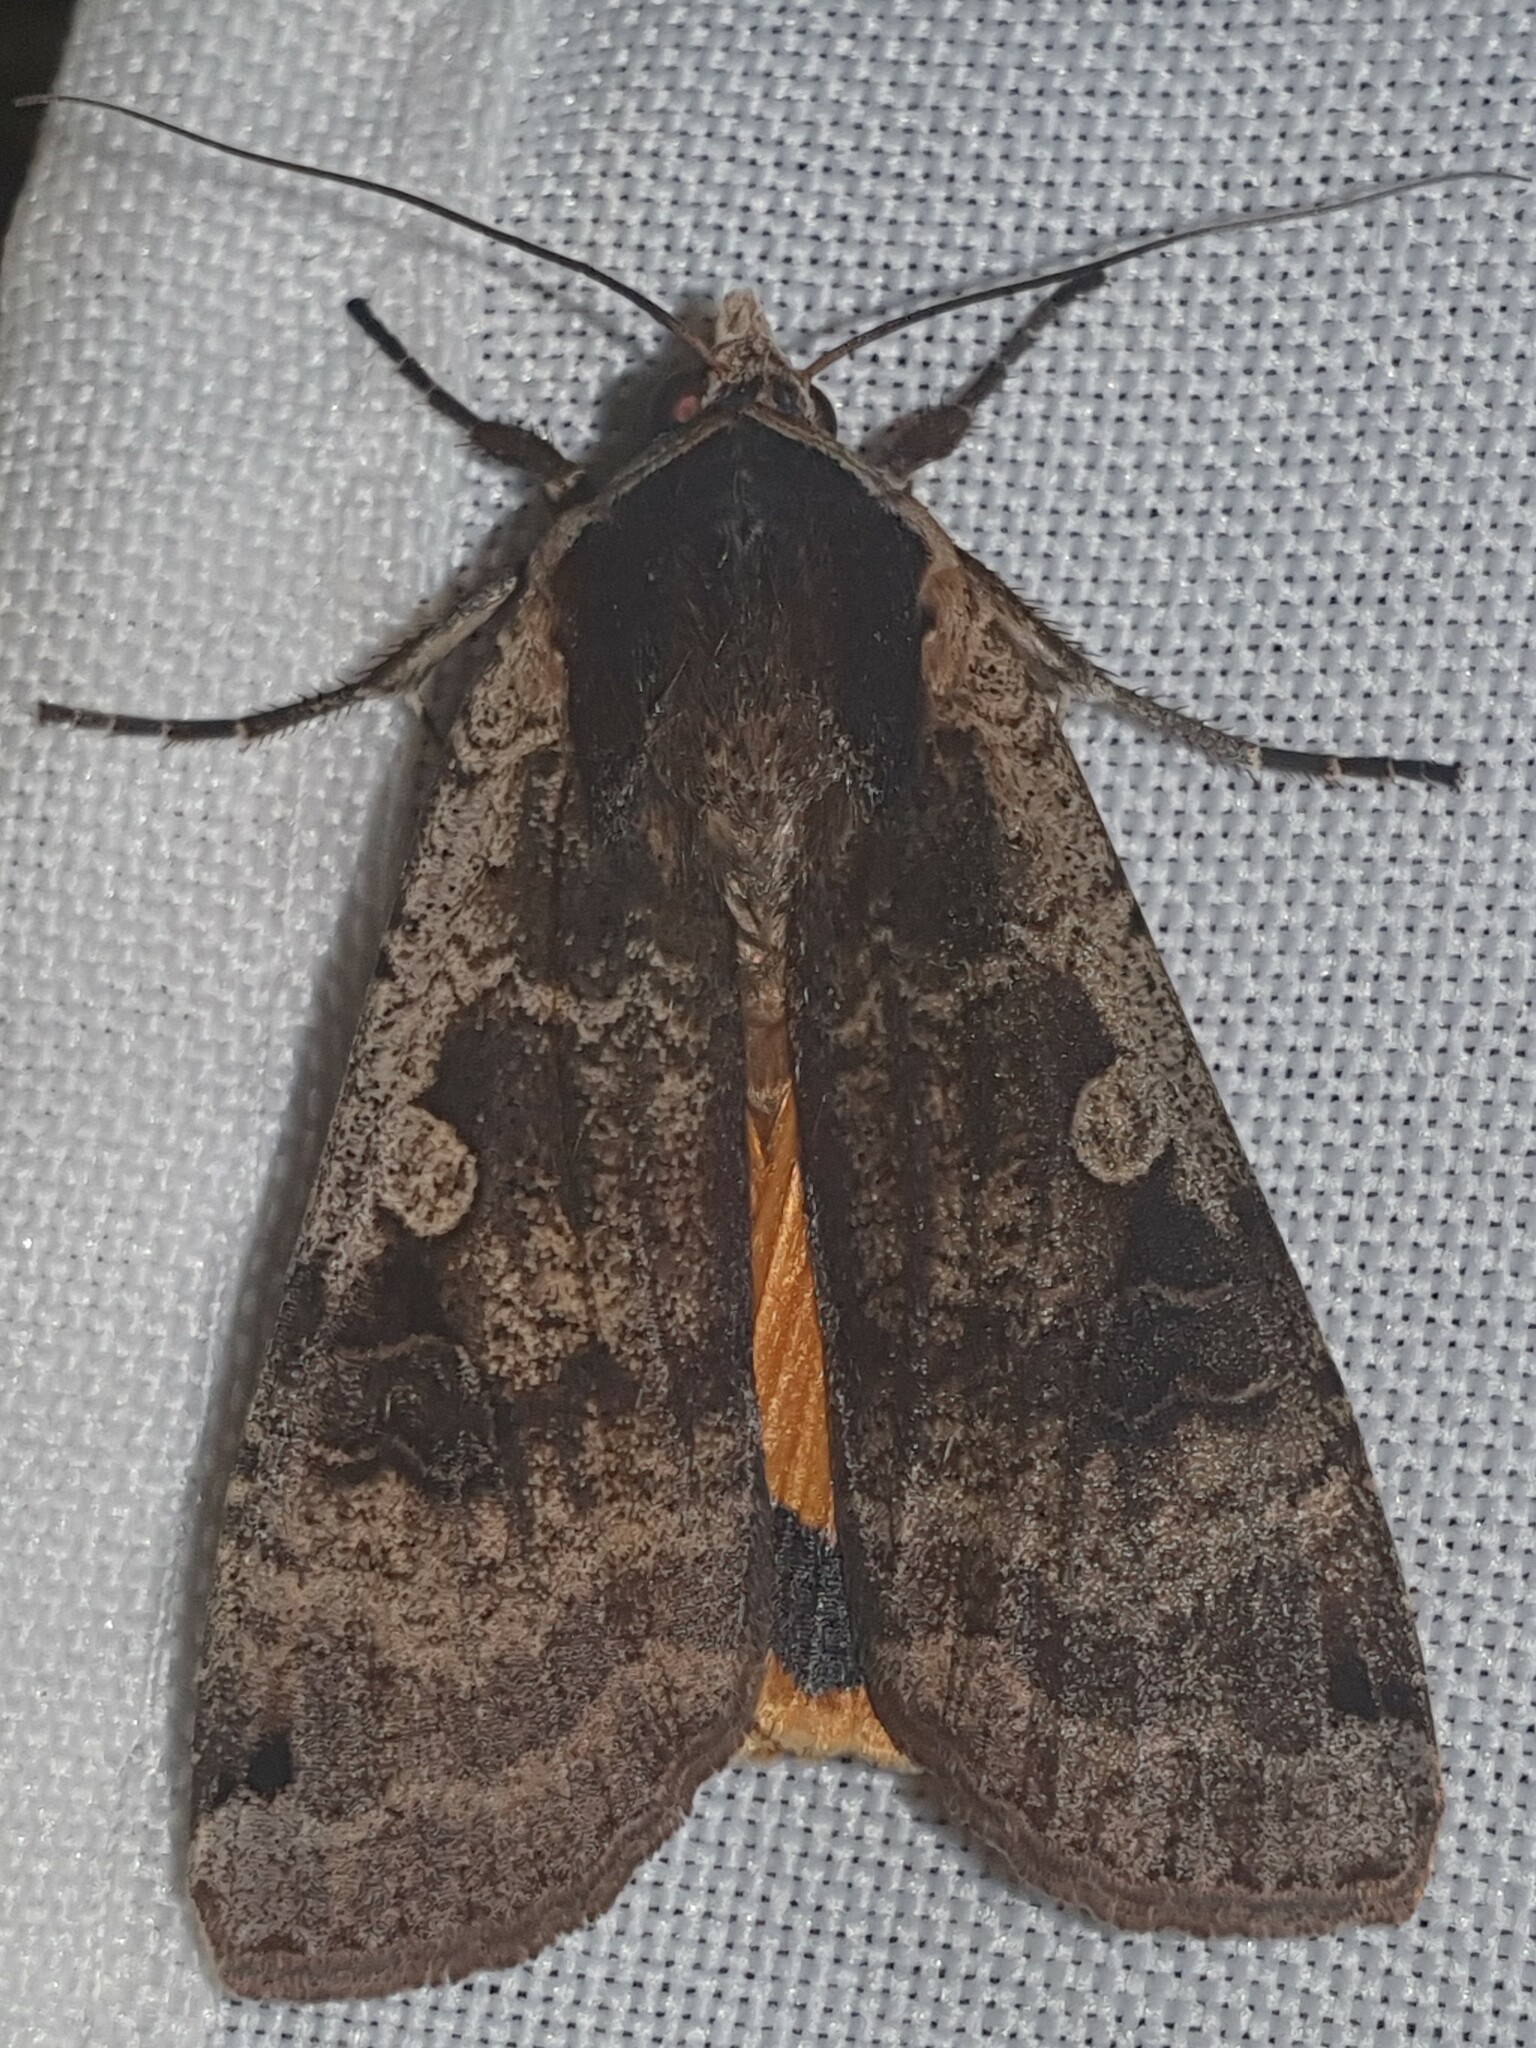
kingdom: Animalia
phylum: Arthropoda
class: Insecta
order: Lepidoptera
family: Noctuidae
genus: Noctua
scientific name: Noctua pronuba
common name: Large yellow underwing
